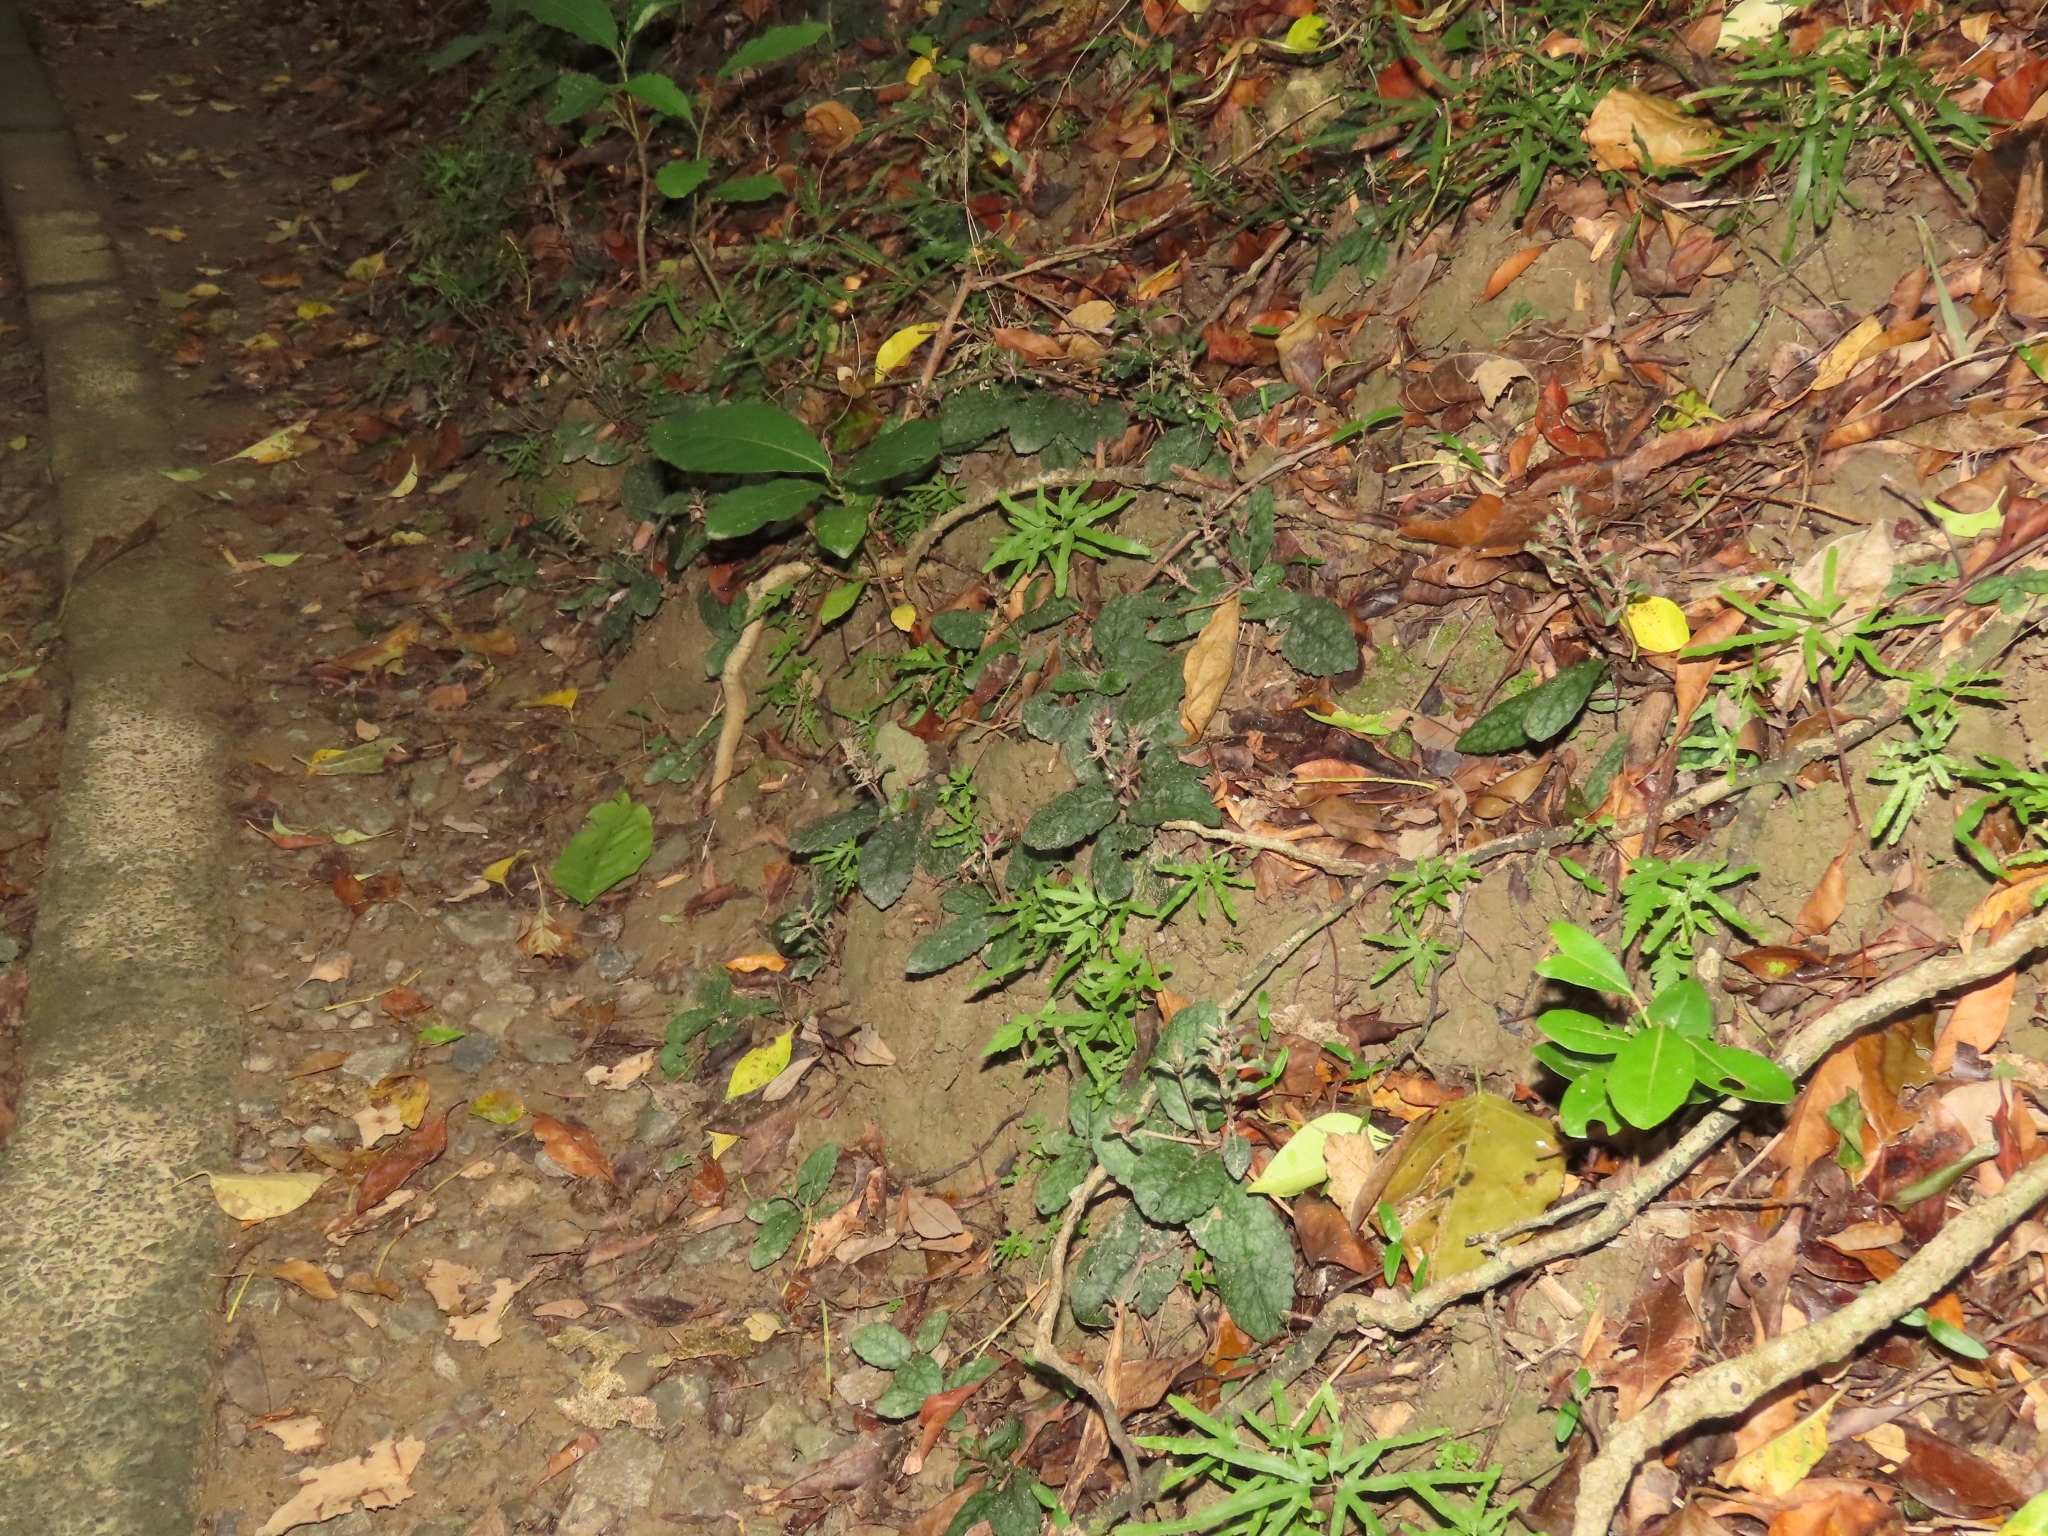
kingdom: Plantae
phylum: Tracheophyta
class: Magnoliopsida
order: Lamiales
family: Acanthaceae
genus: Strobilanthes
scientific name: Strobilanthes reptans
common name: Acanthaceae
